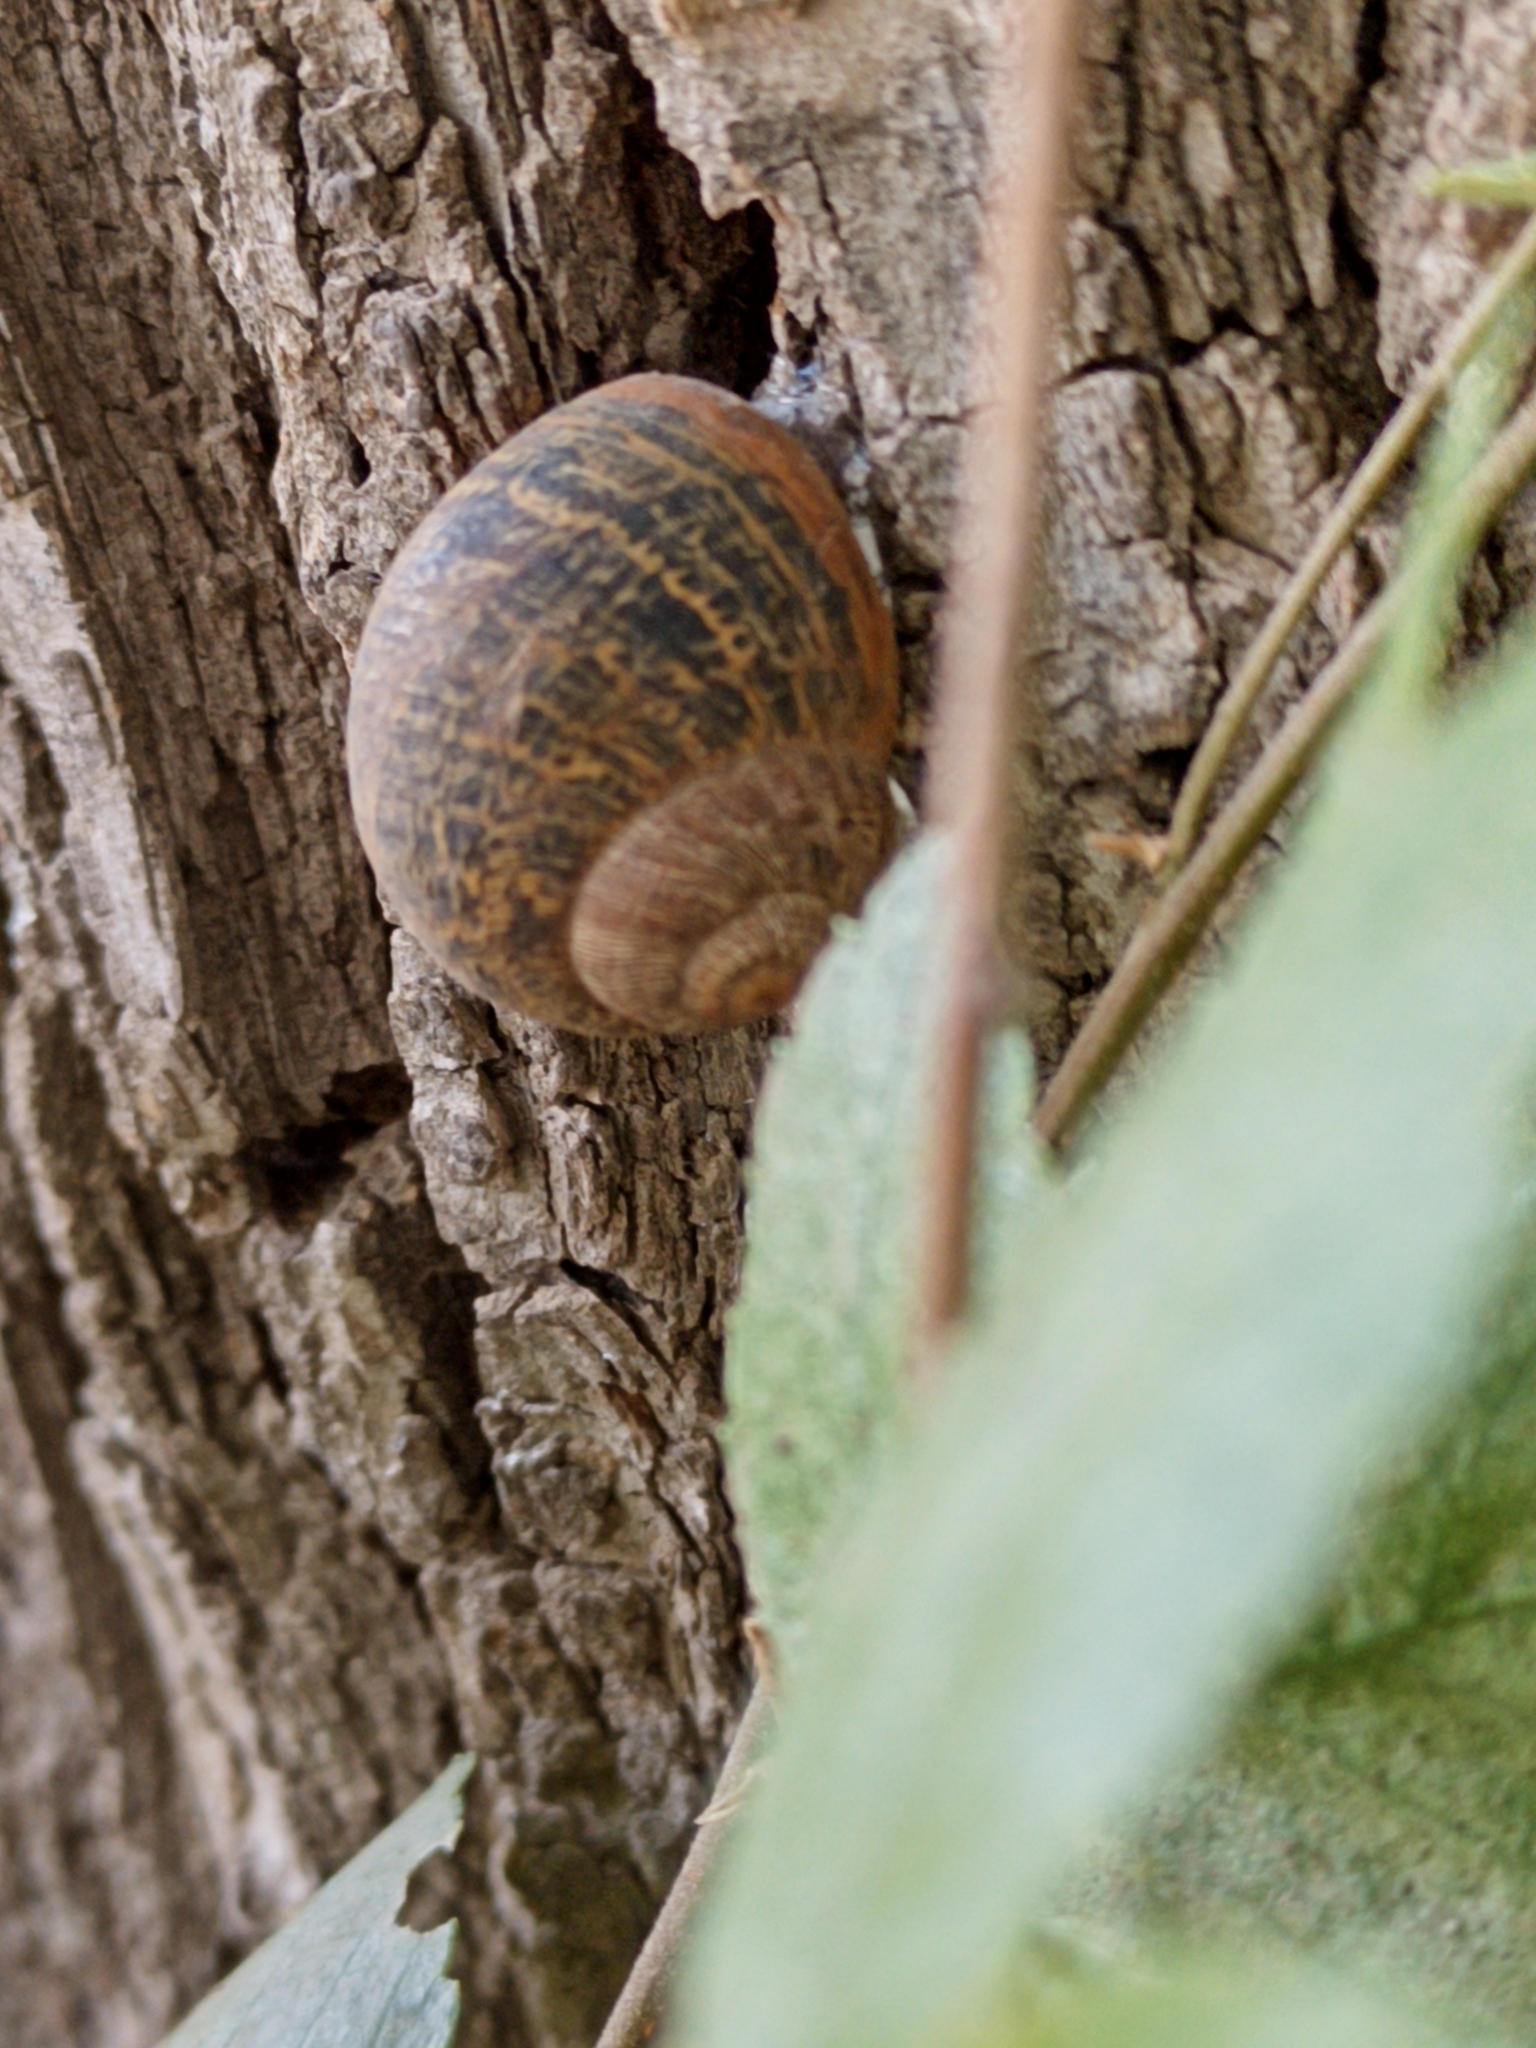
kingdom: Animalia
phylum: Mollusca
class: Gastropoda
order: Stylommatophora
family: Helicidae
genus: Cornu
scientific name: Cornu aspersum
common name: Brown garden snail
